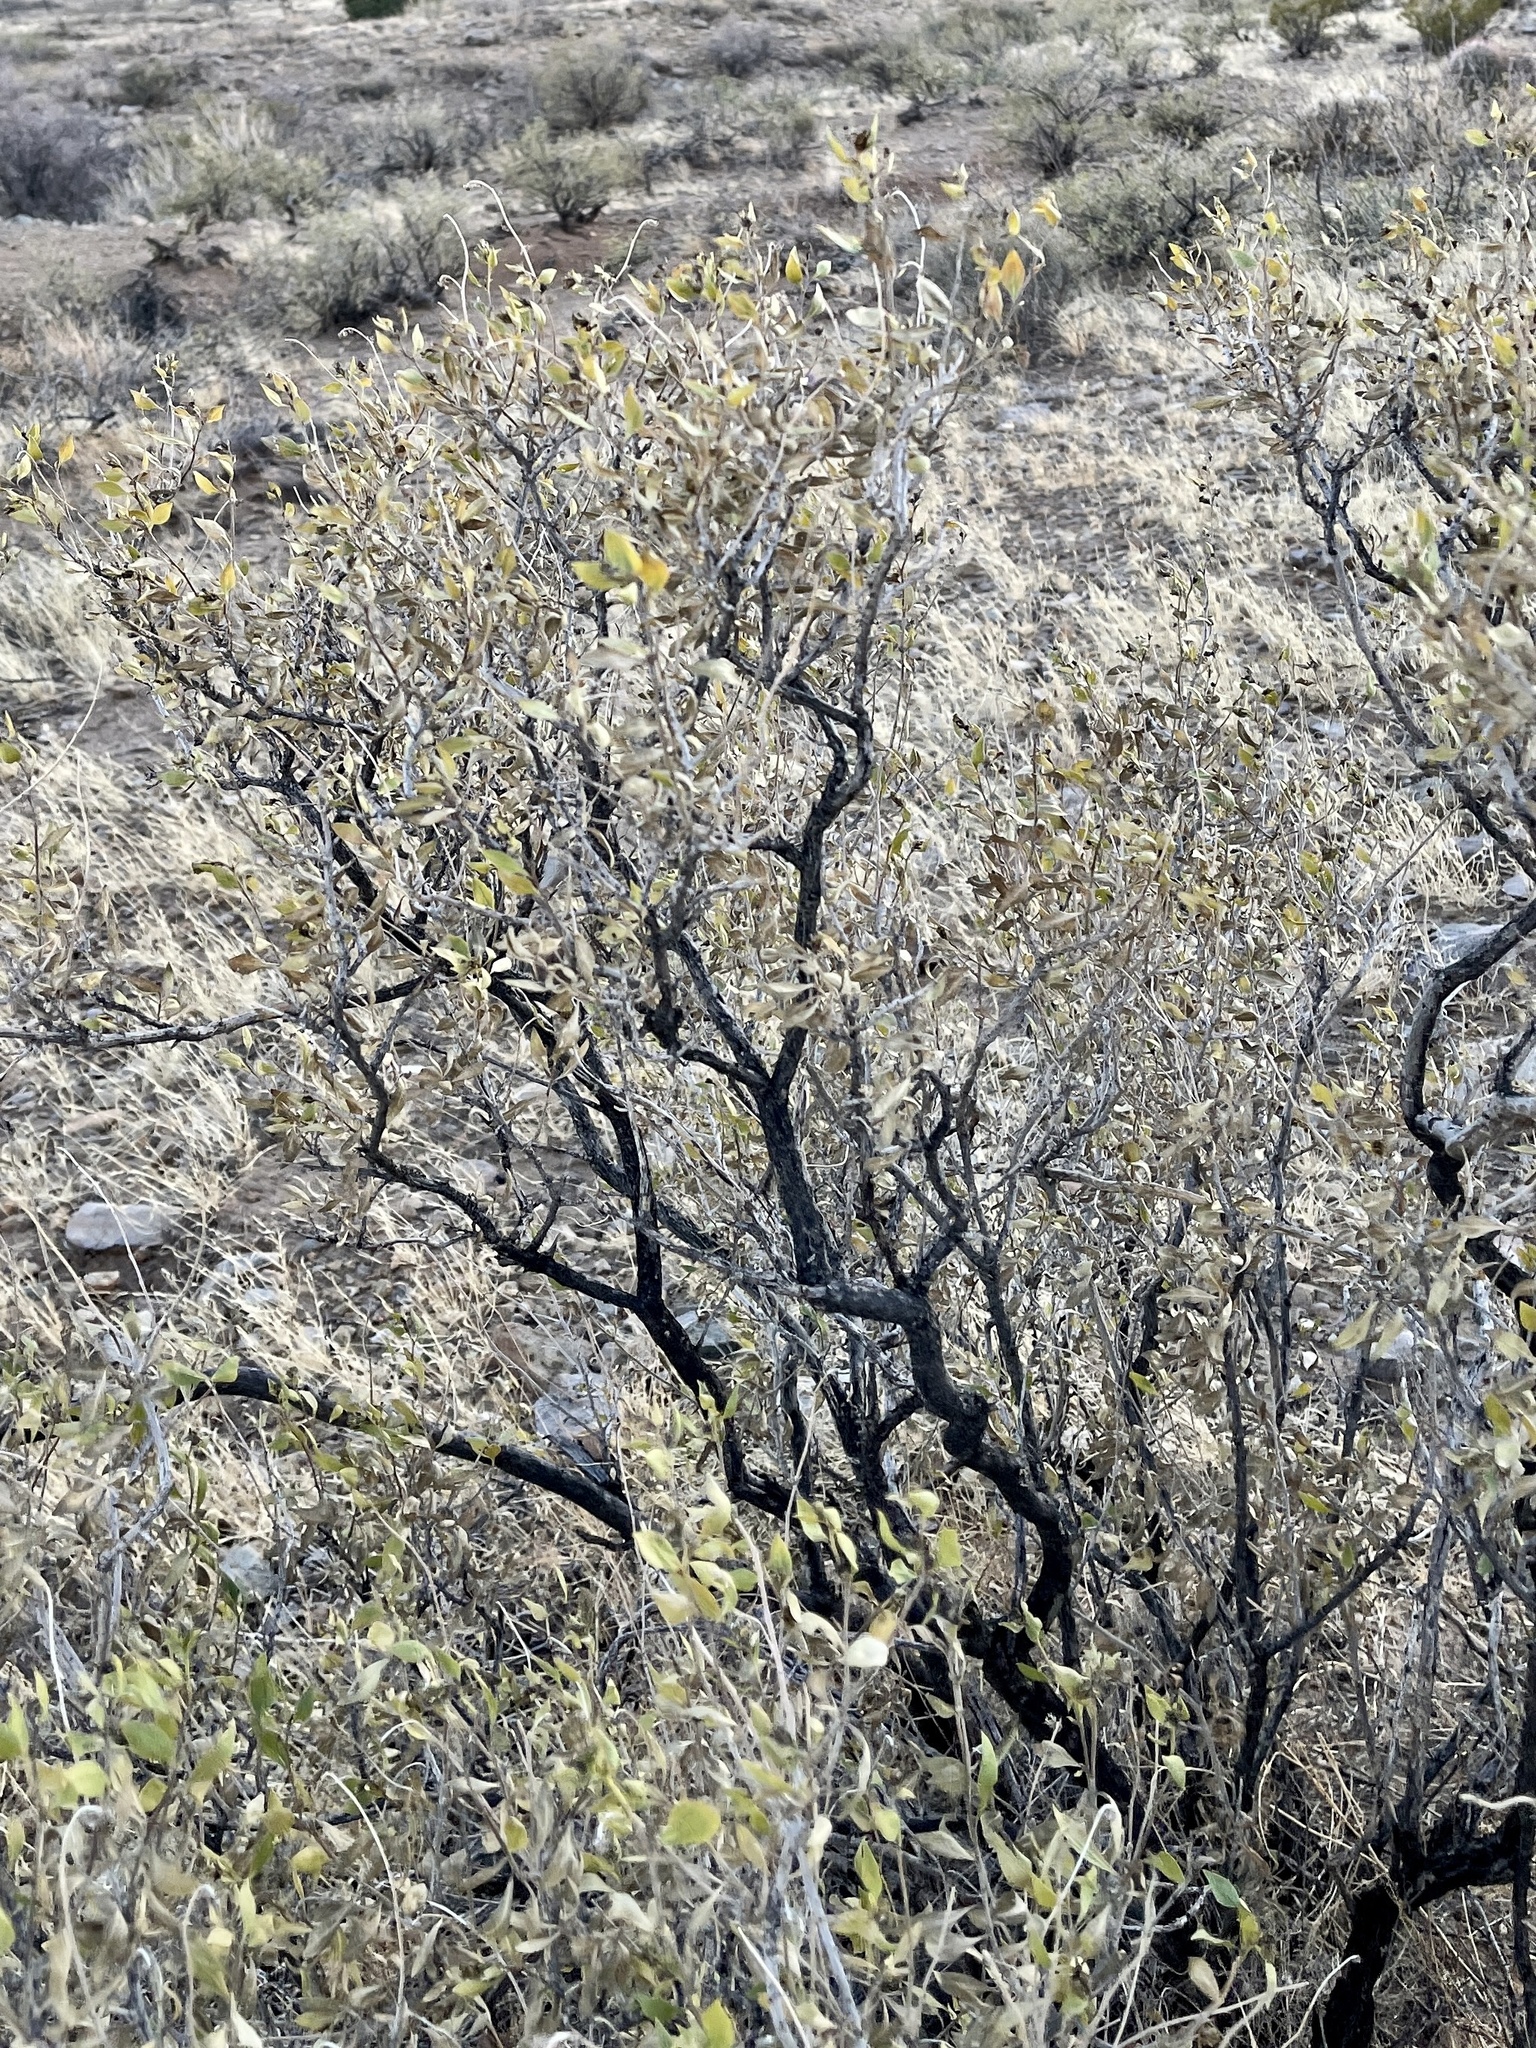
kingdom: Plantae
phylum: Tracheophyta
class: Magnoliopsida
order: Asterales
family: Asteraceae
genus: Flourensia
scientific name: Flourensia cernua
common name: Varnishbush
